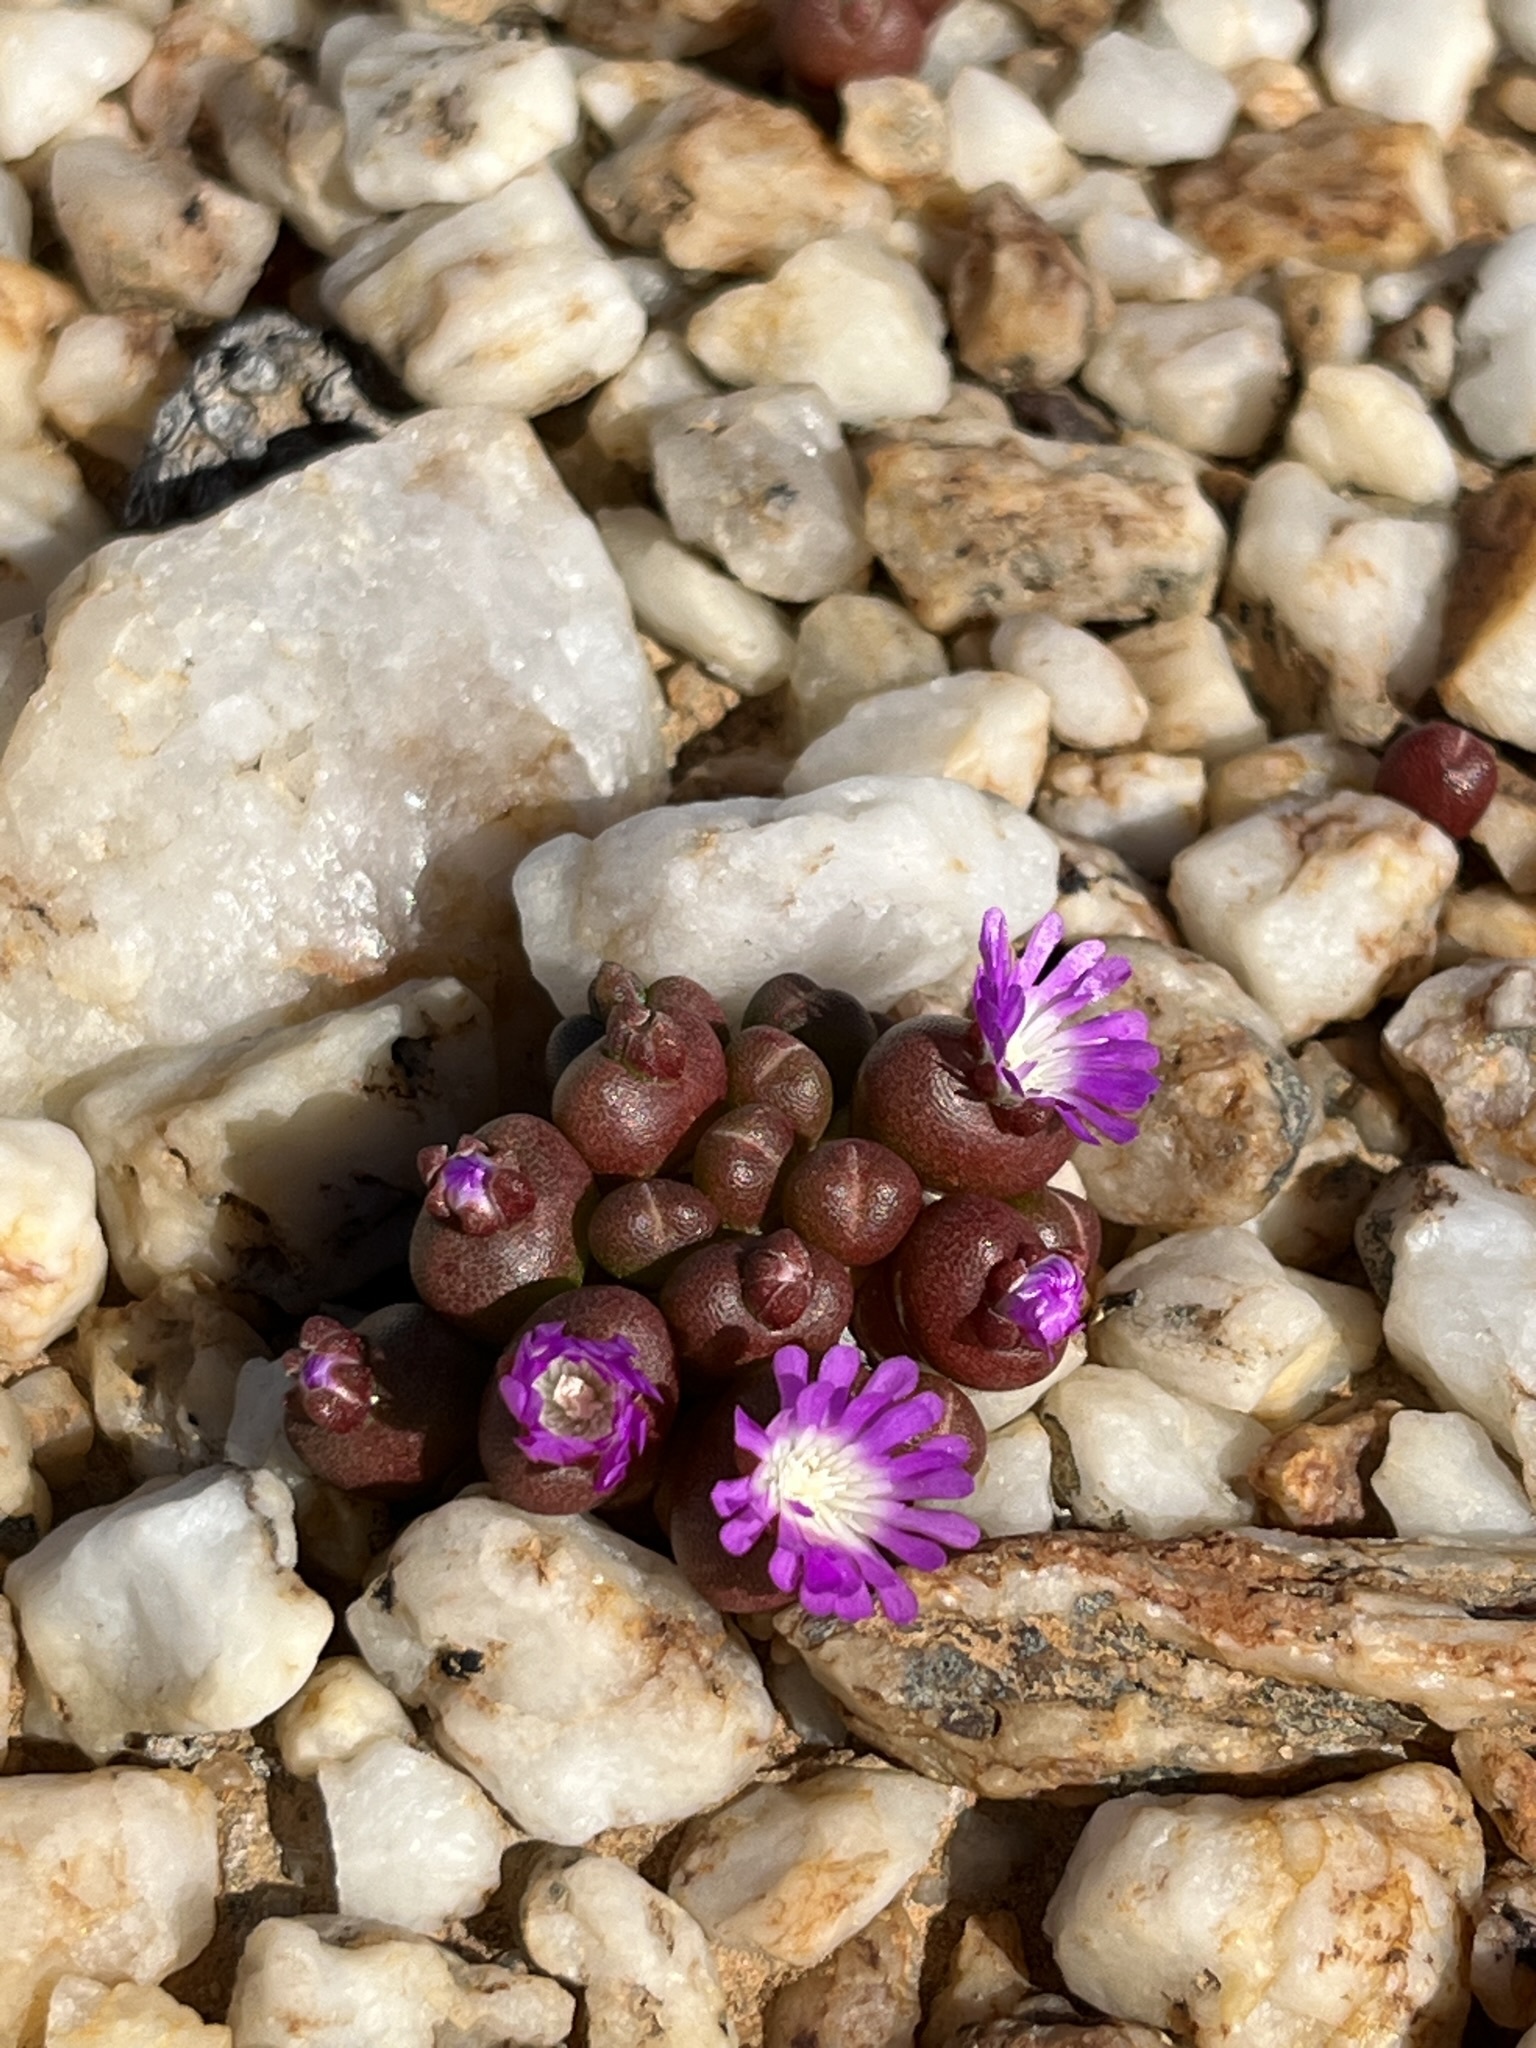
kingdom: Plantae
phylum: Tracheophyta
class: Magnoliopsida
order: Caryophyllales
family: Aizoaceae
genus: Oophytum
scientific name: Oophytum nanum
